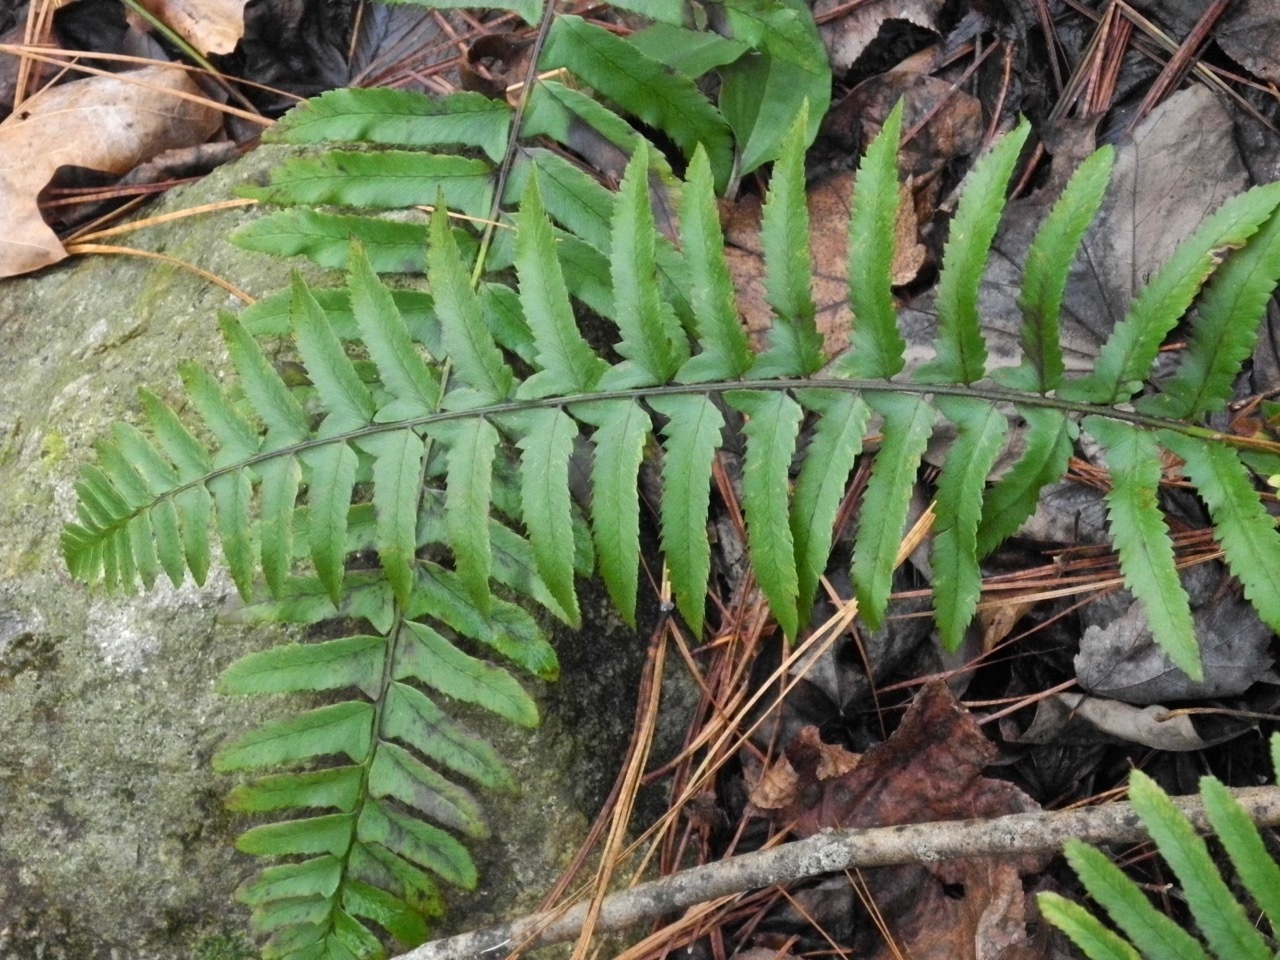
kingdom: Plantae
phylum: Tracheophyta
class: Polypodiopsida
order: Polypodiales
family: Dryopteridaceae
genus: Polystichum
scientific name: Polystichum acrostichoides
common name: Christmas fern
